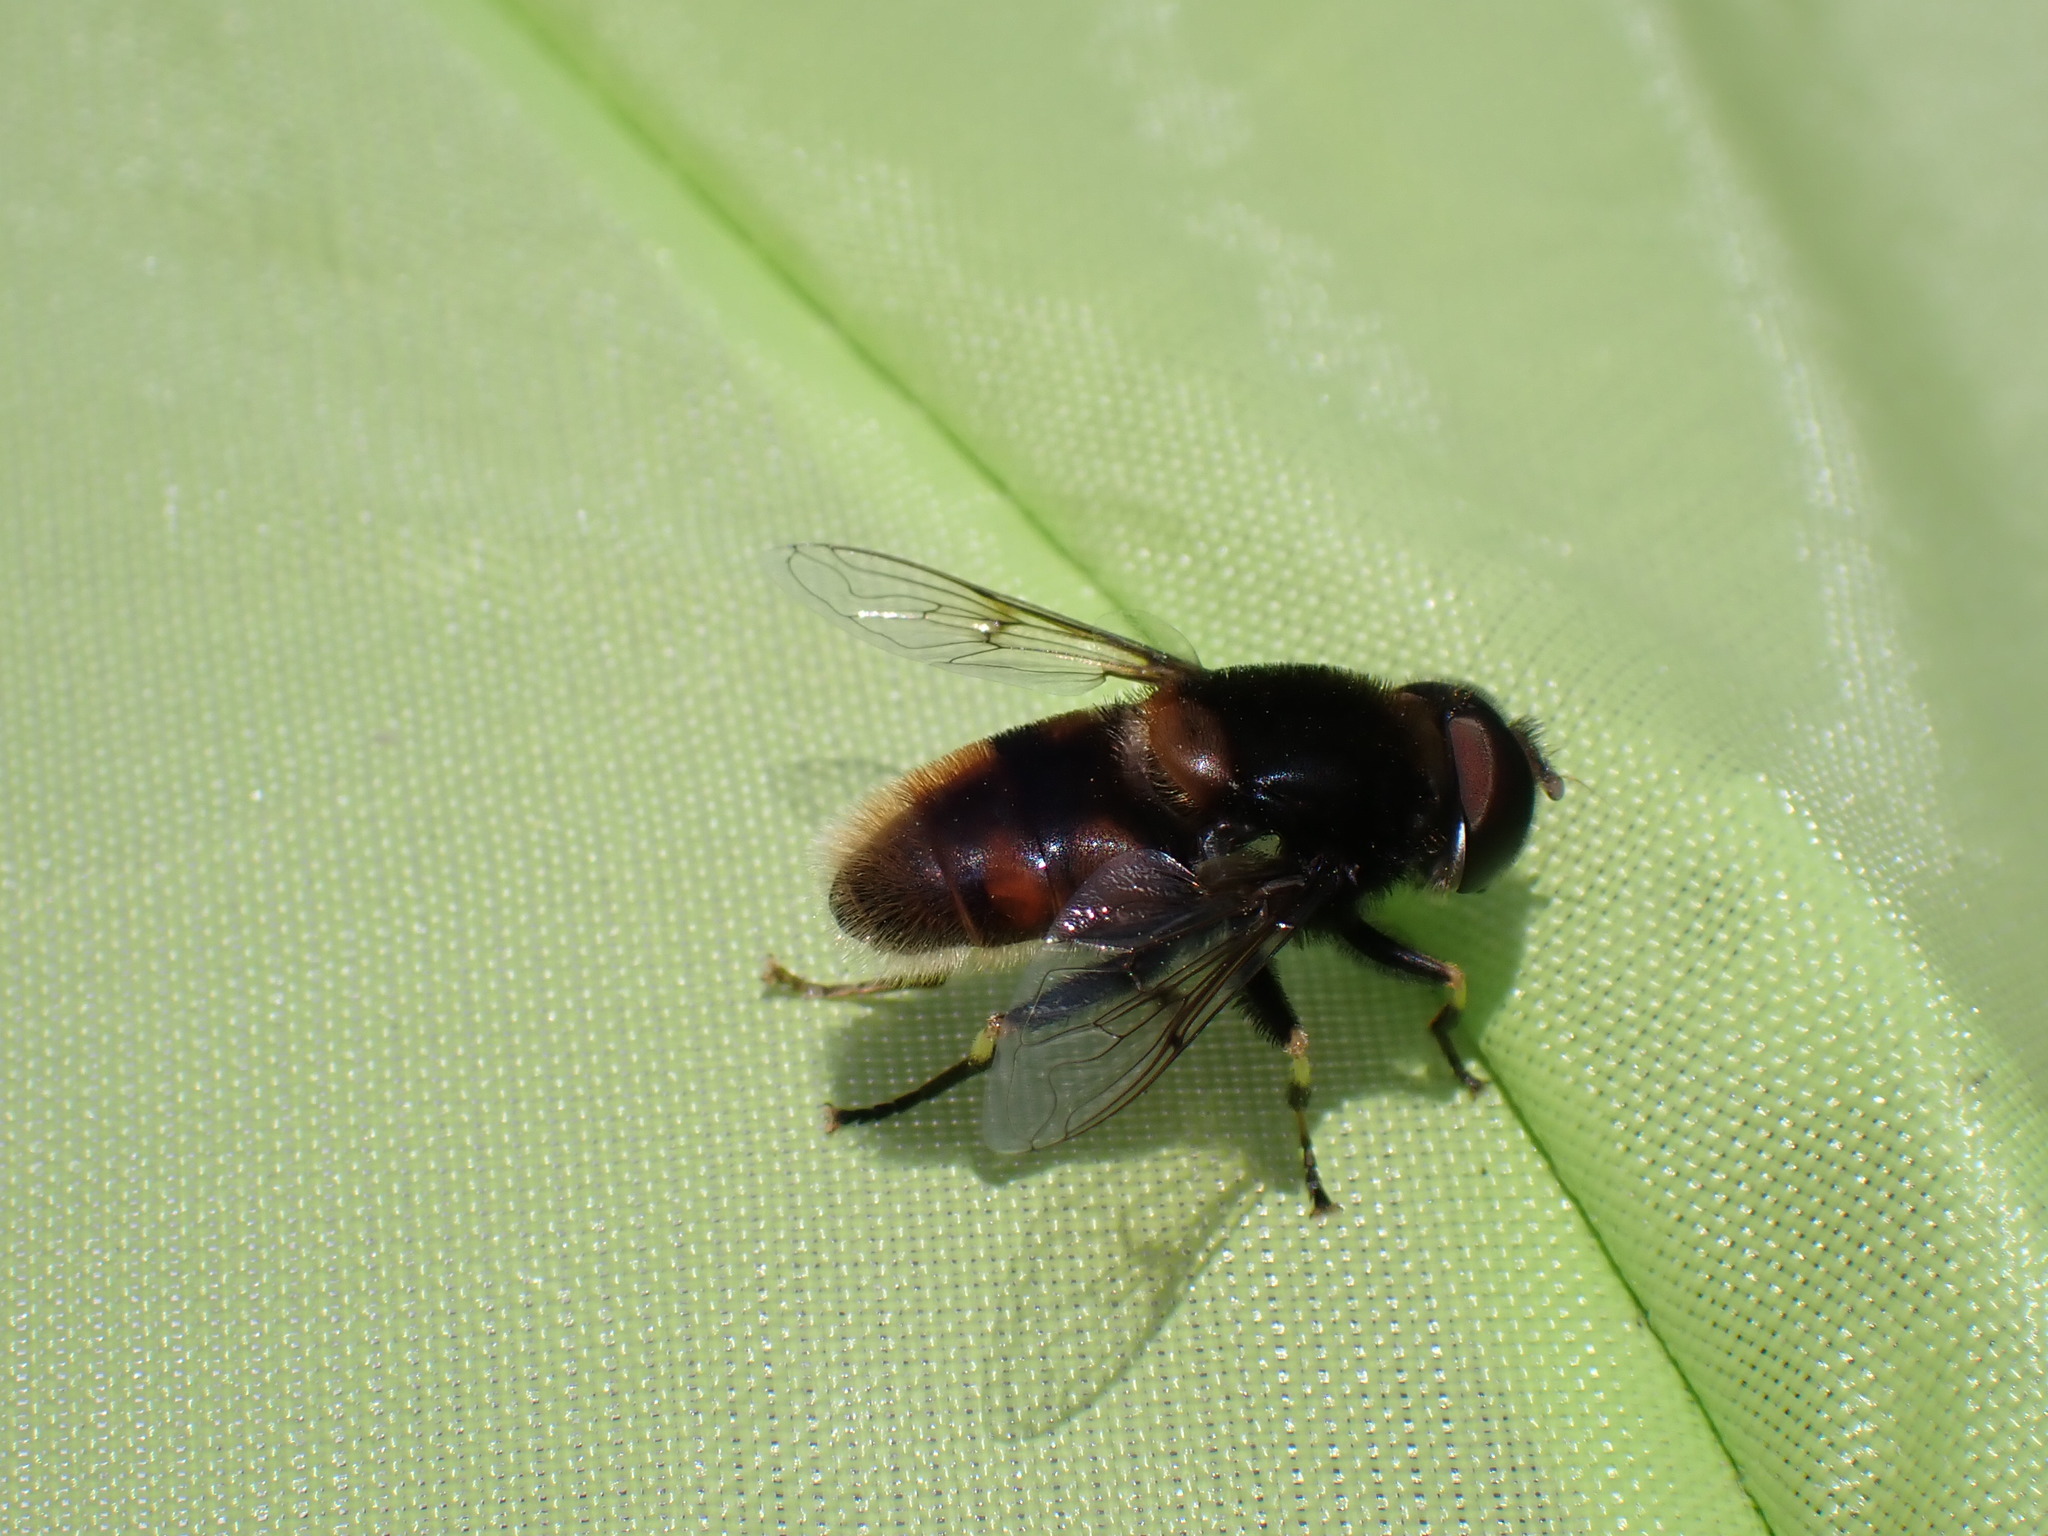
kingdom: Animalia
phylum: Arthropoda
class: Insecta
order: Diptera
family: Syrphidae
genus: Eristalis
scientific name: Eristalis intricaria
